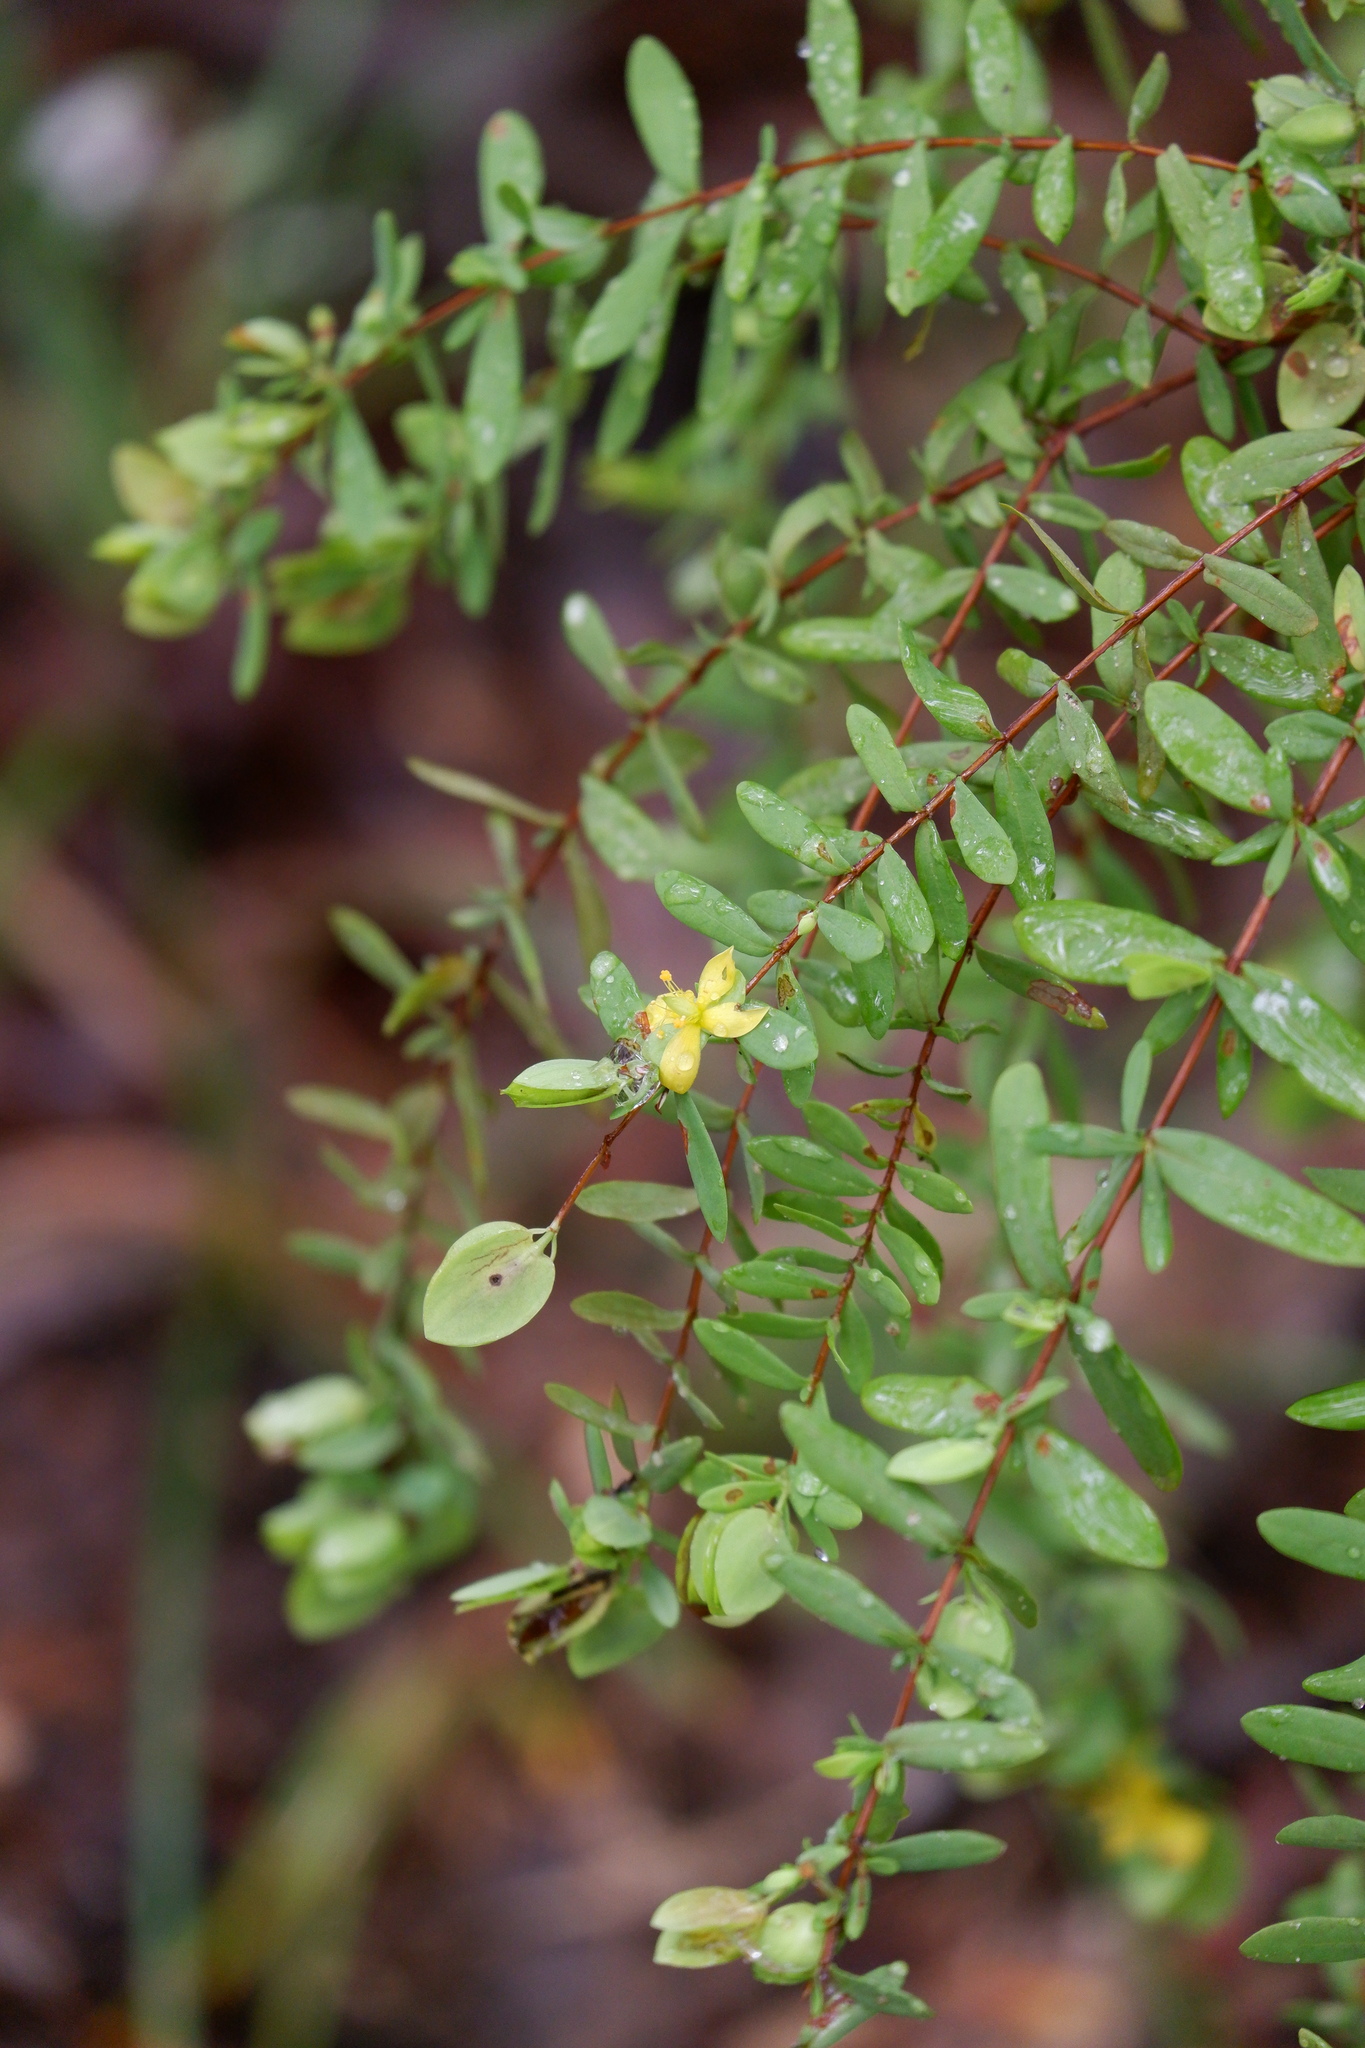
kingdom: Plantae
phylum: Tracheophyta
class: Magnoliopsida
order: Malpighiales
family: Hypericaceae
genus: Hypericum
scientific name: Hypericum hypericoides
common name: St. andrew's cross
